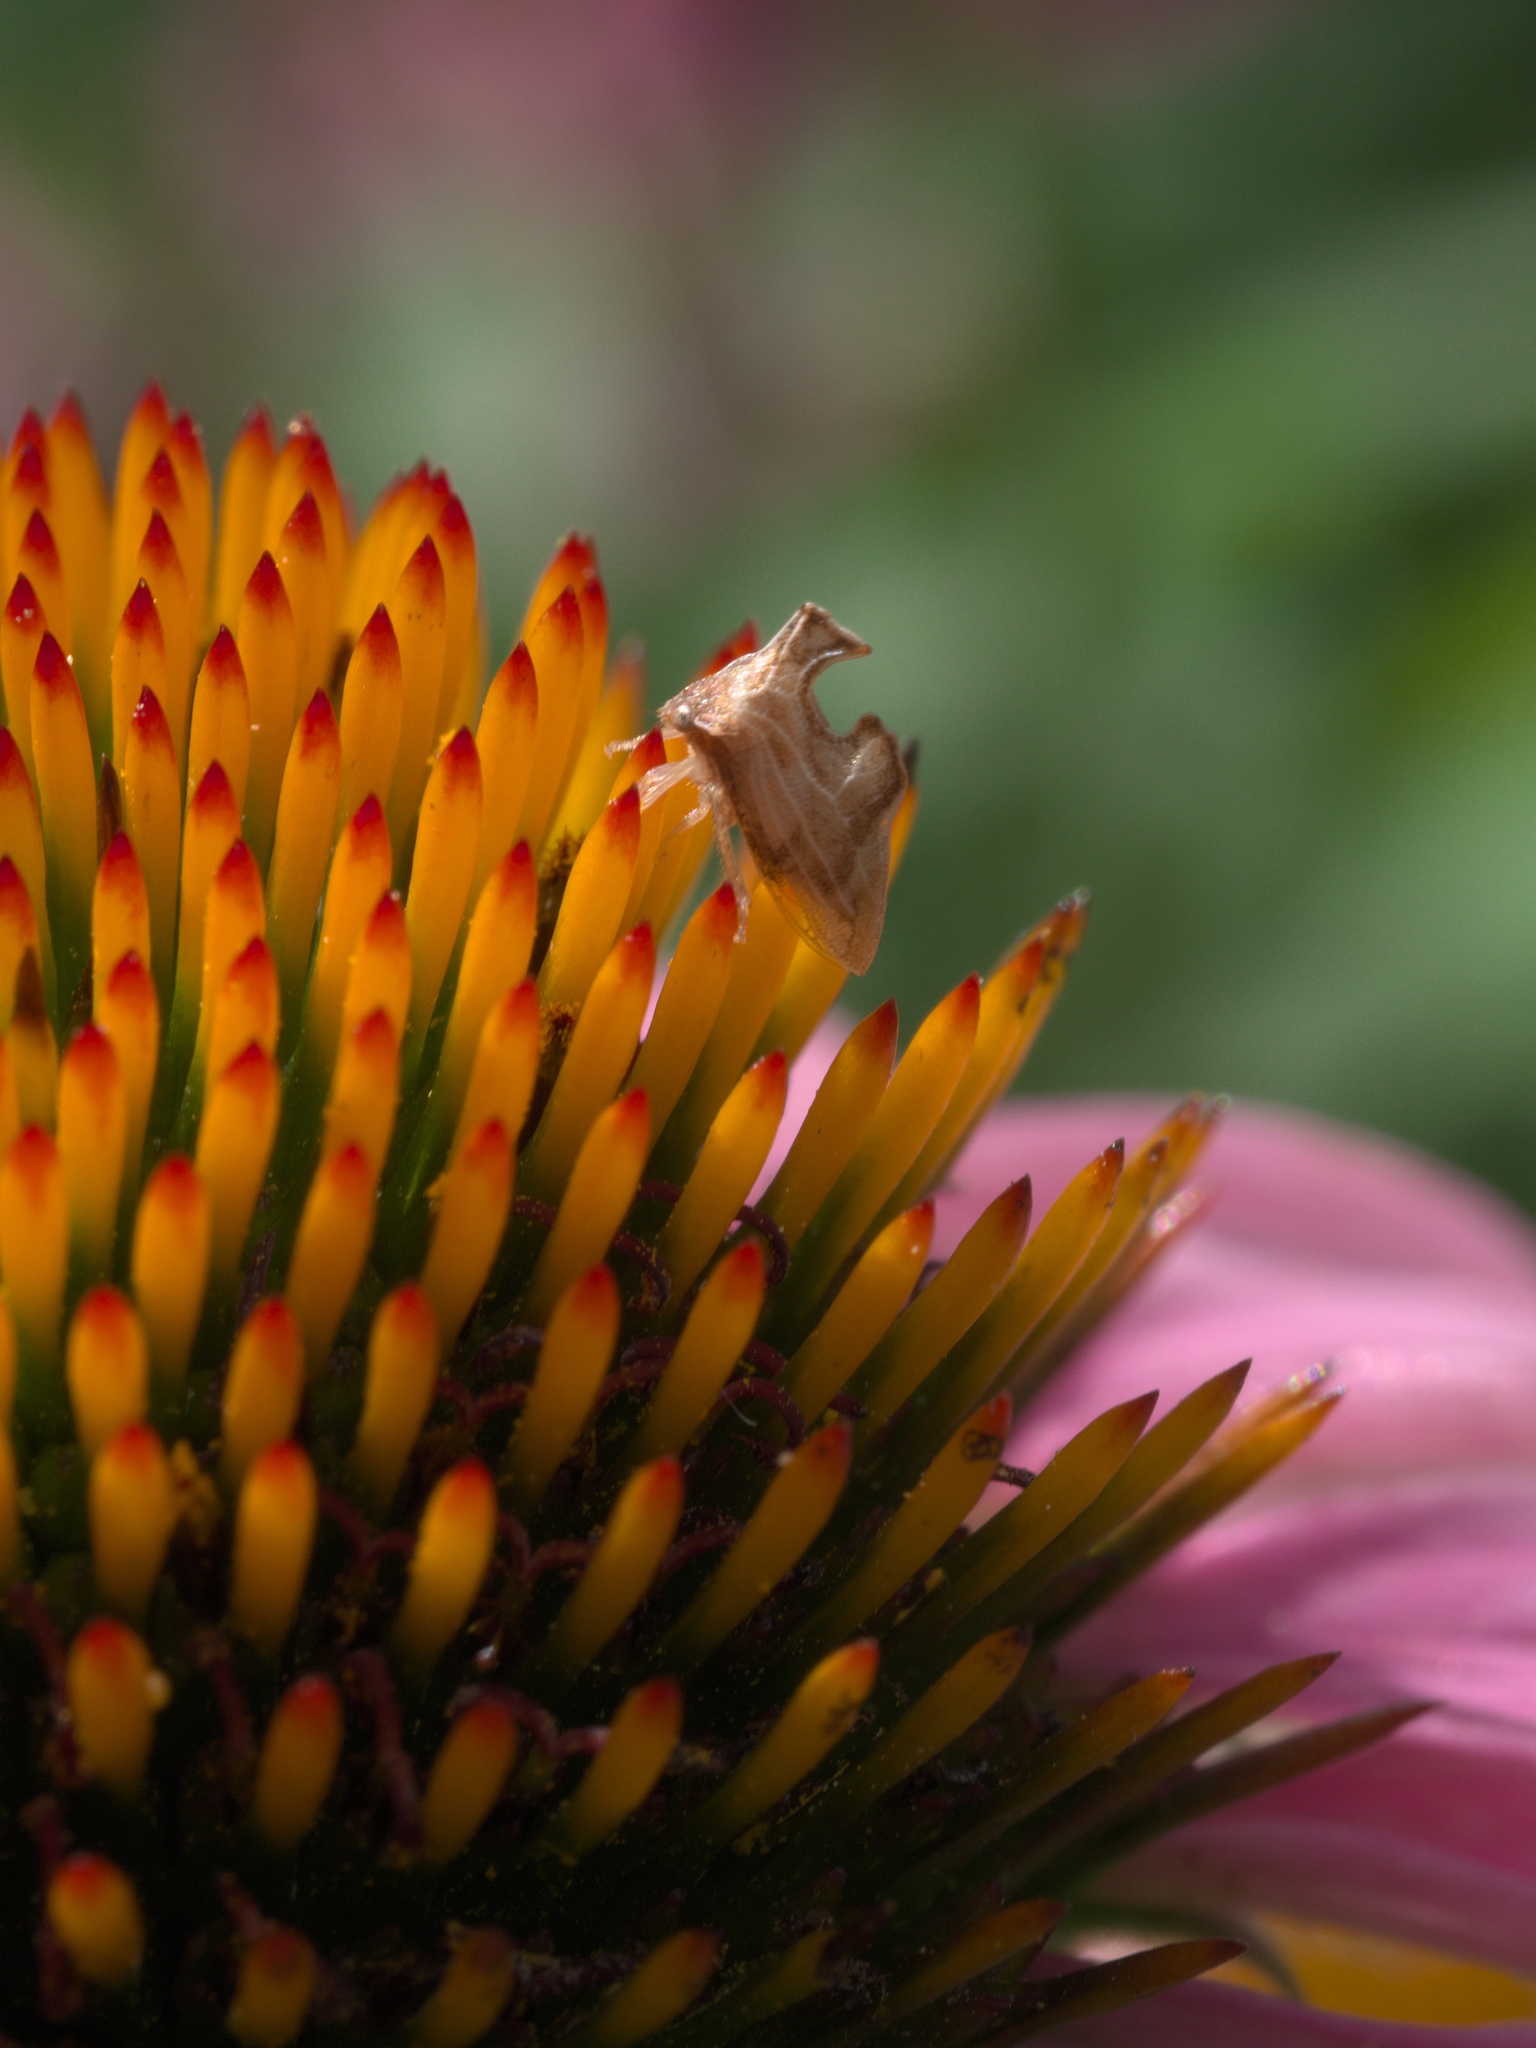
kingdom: Animalia
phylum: Arthropoda
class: Insecta
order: Hemiptera
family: Membracidae
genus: Entylia
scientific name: Entylia carinata
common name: Keeled treehopper
